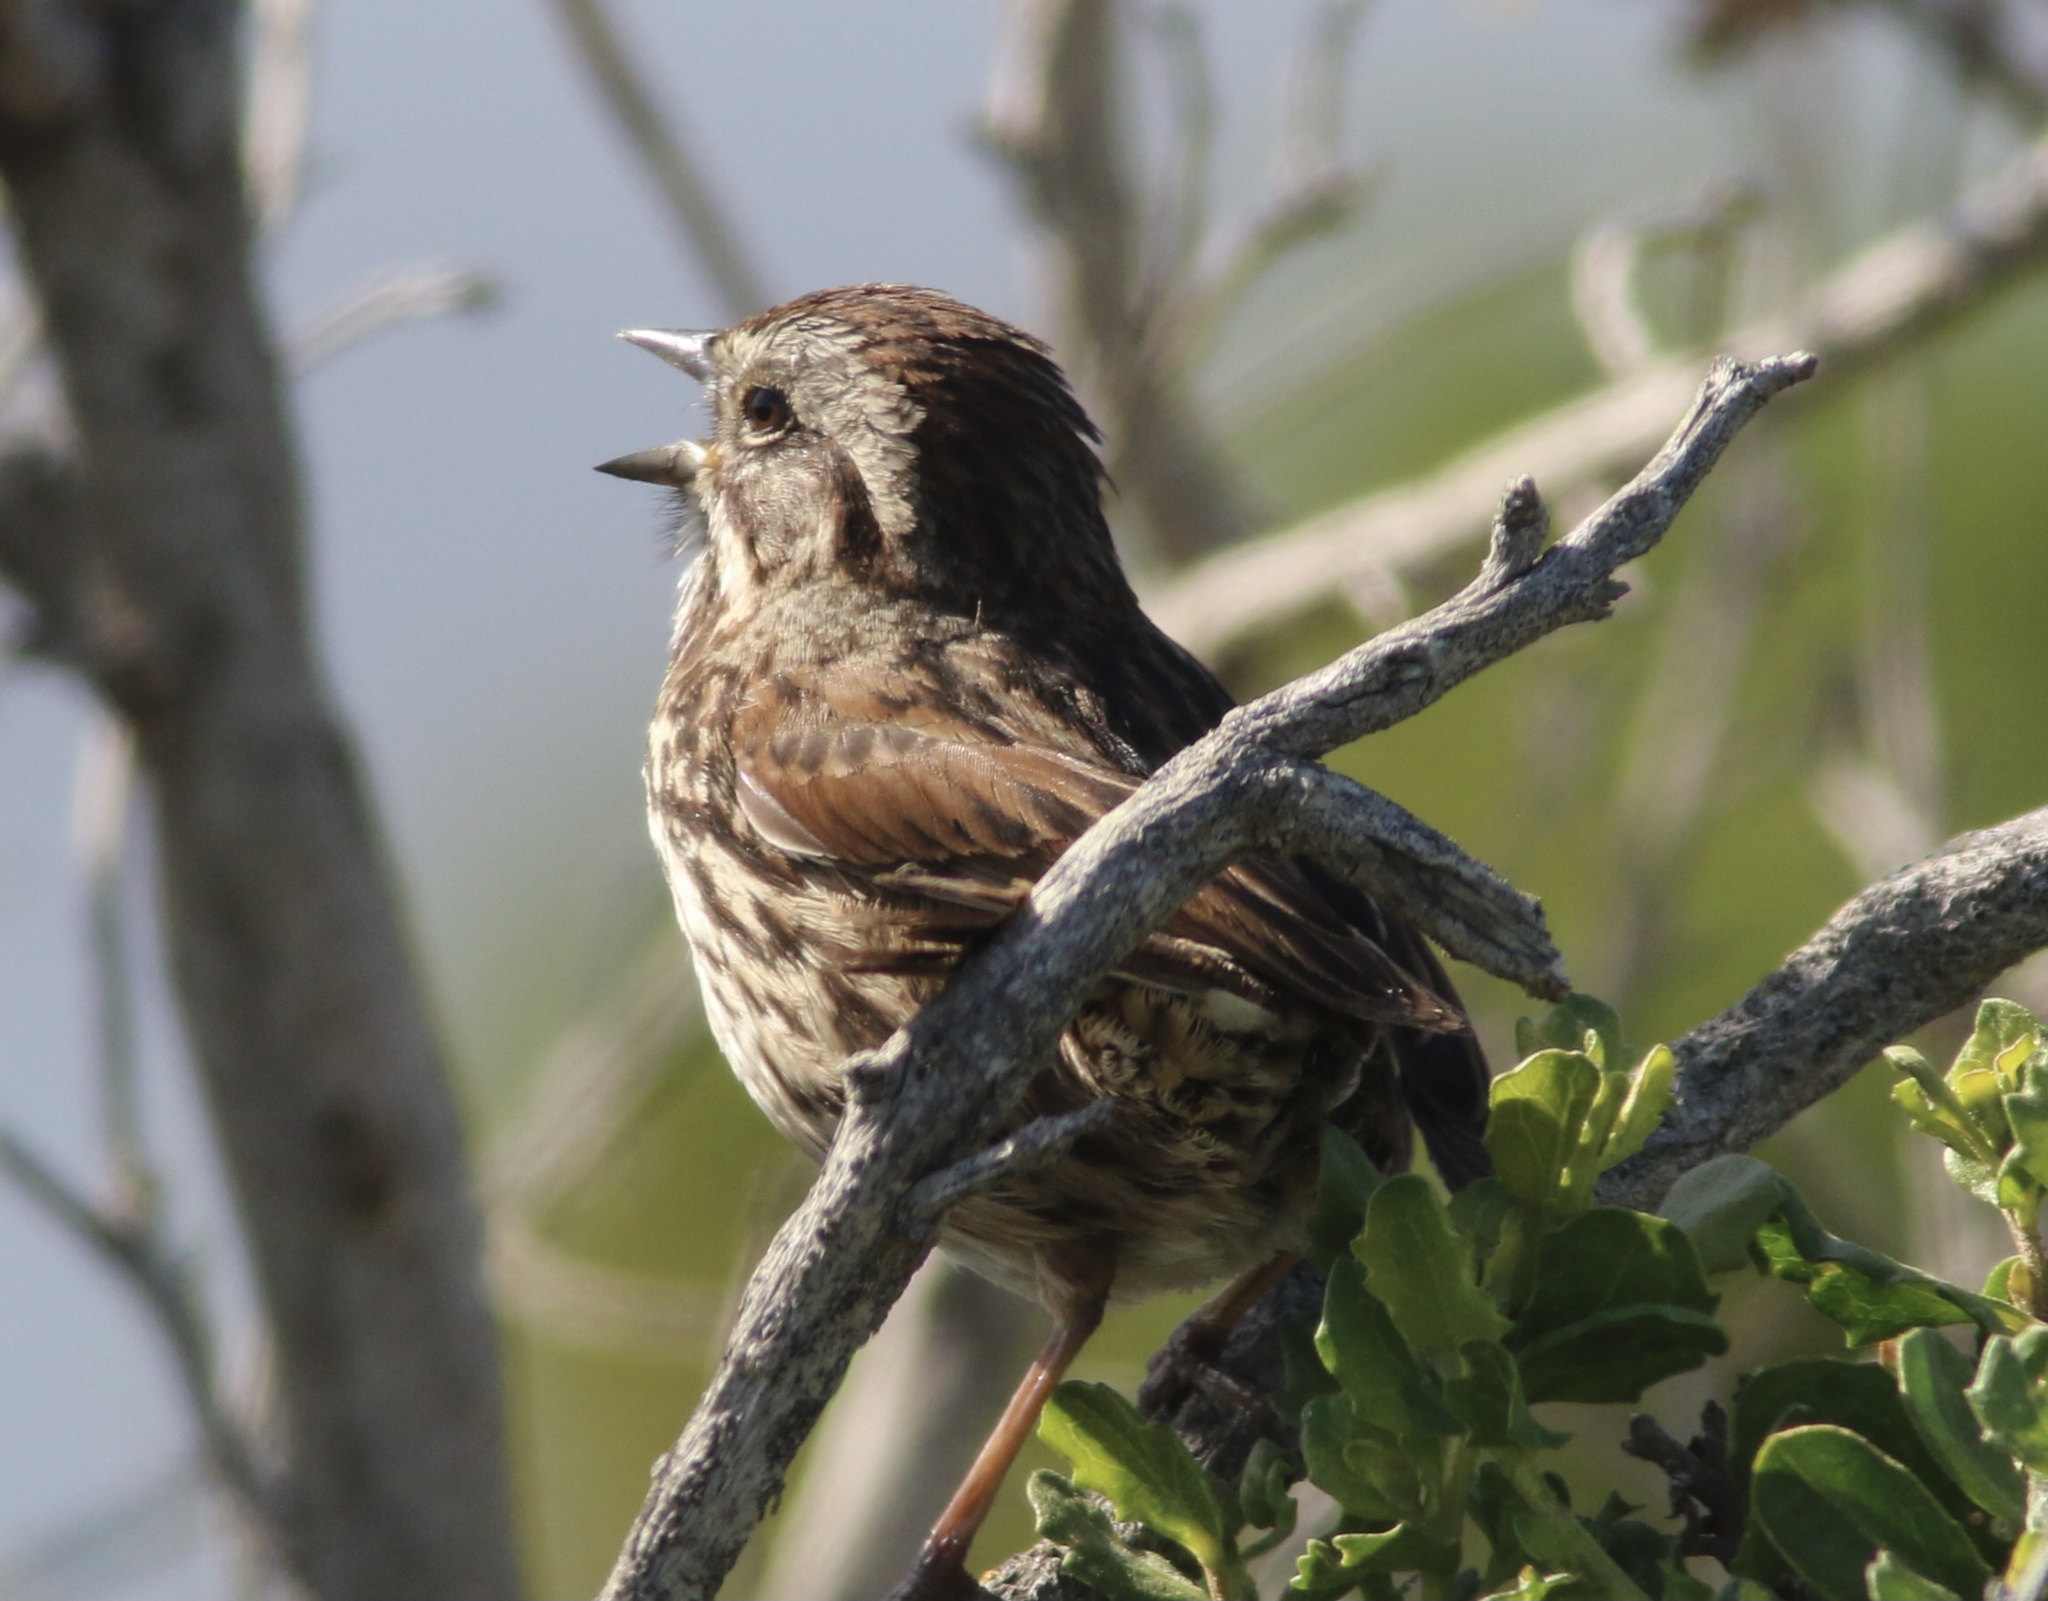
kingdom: Animalia
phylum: Chordata
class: Aves
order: Passeriformes
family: Passerellidae
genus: Melospiza
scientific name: Melospiza melodia
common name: Song sparrow
